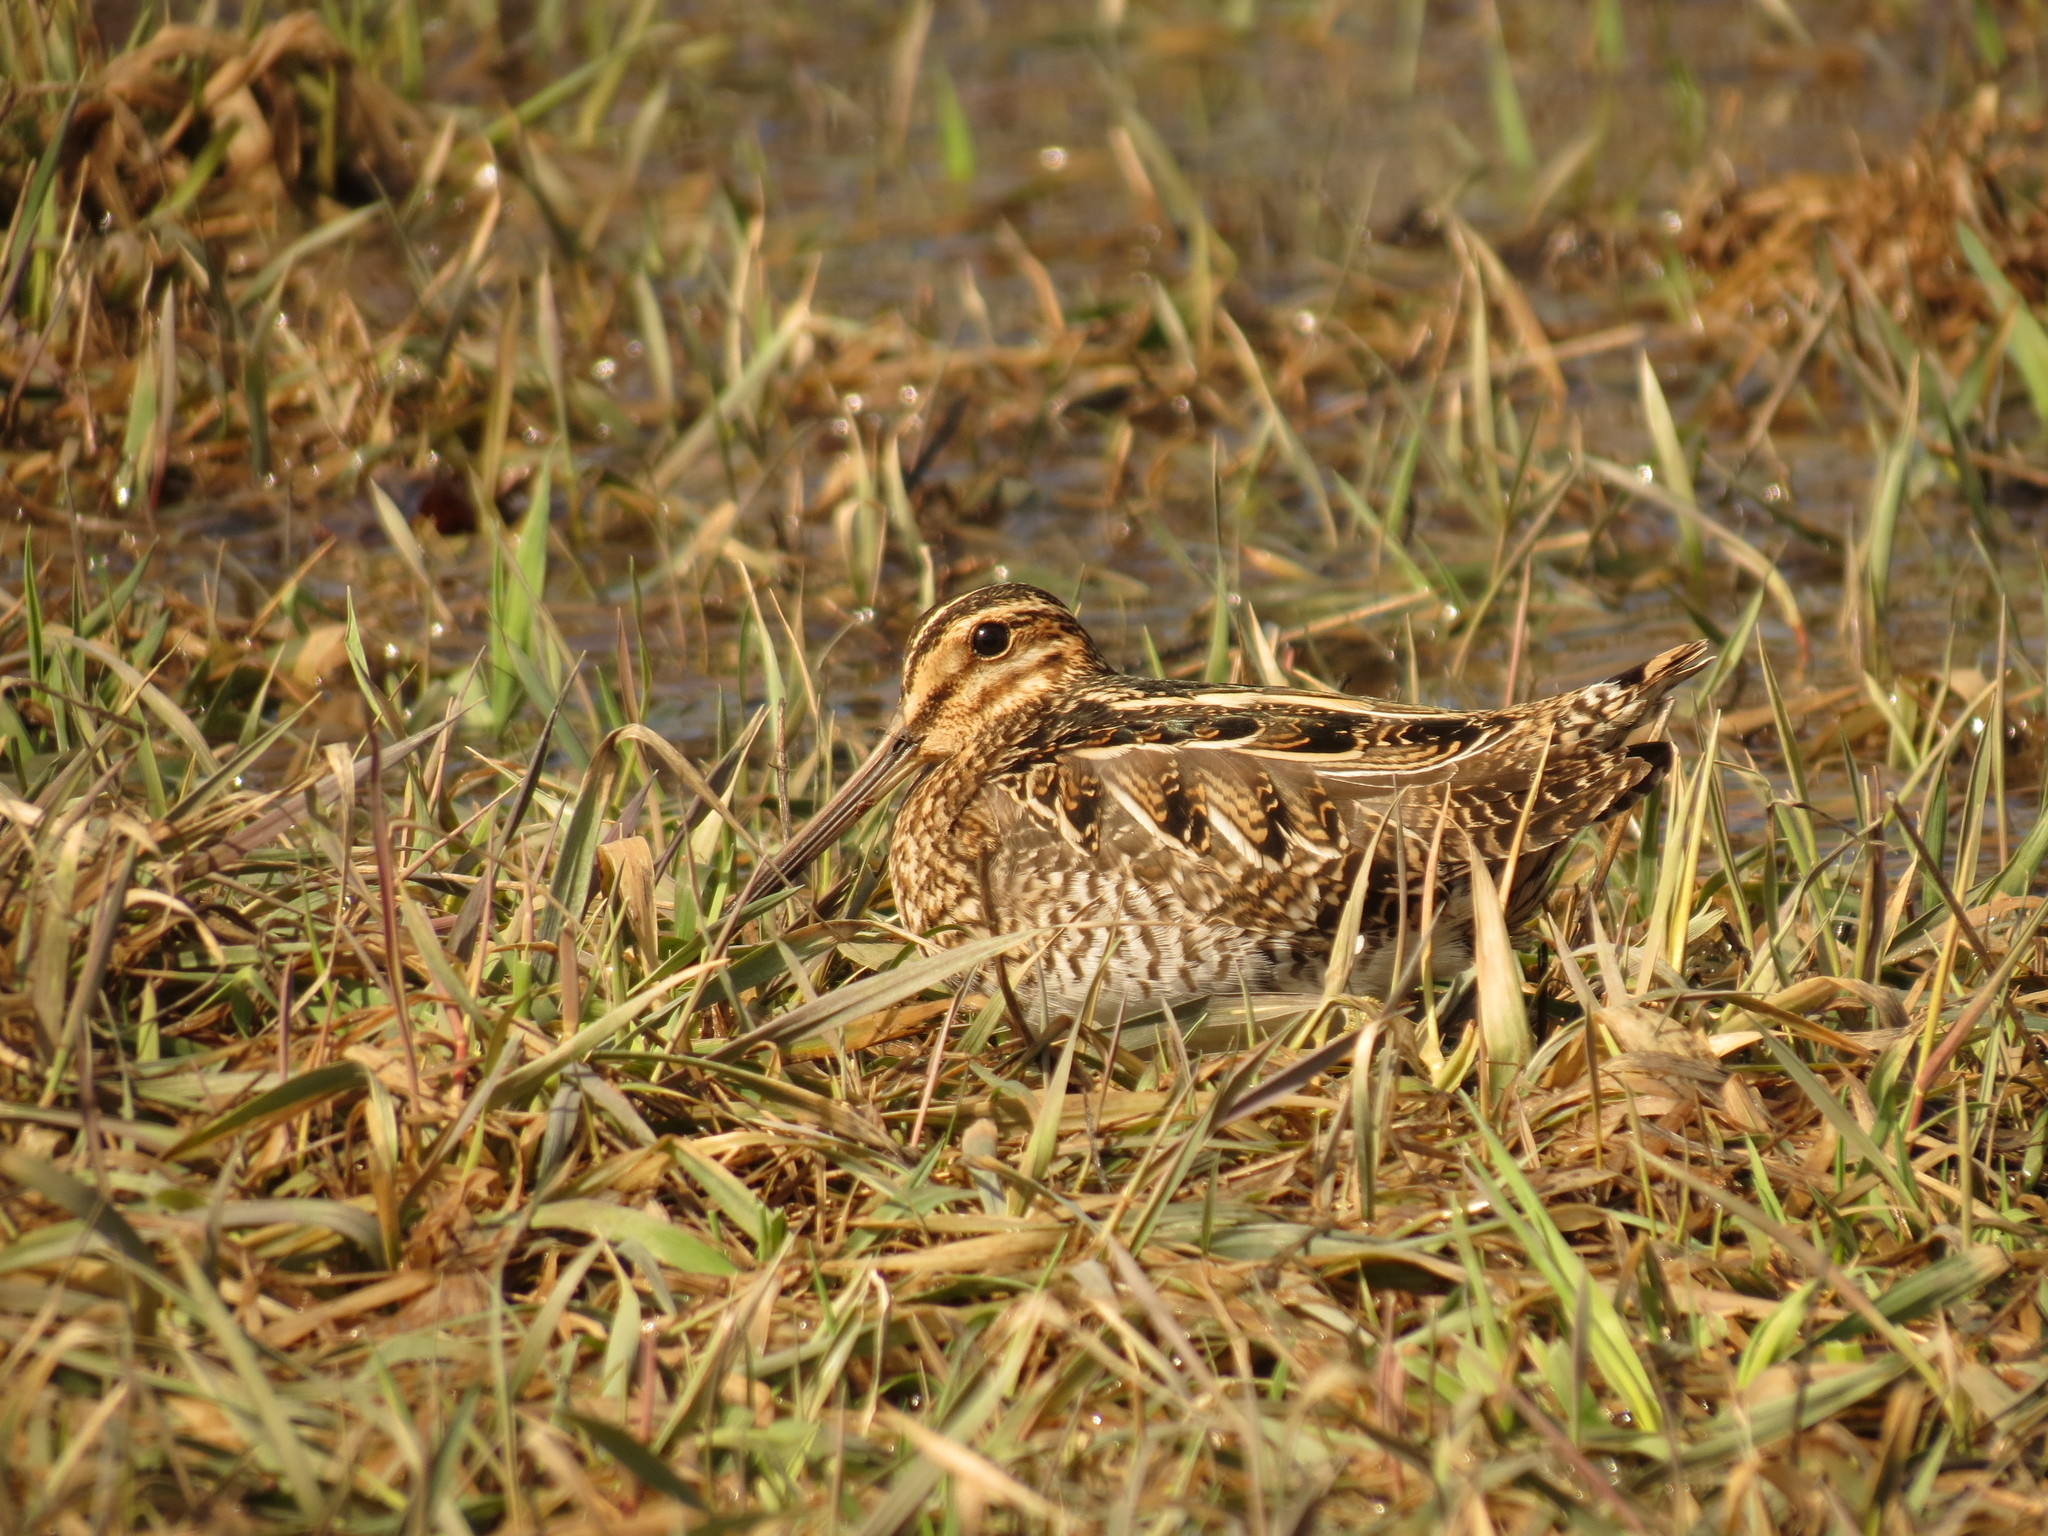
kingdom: Animalia
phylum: Chordata
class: Aves
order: Charadriiformes
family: Scolopacidae
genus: Gallinago
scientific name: Gallinago delicata
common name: Wilson's snipe
